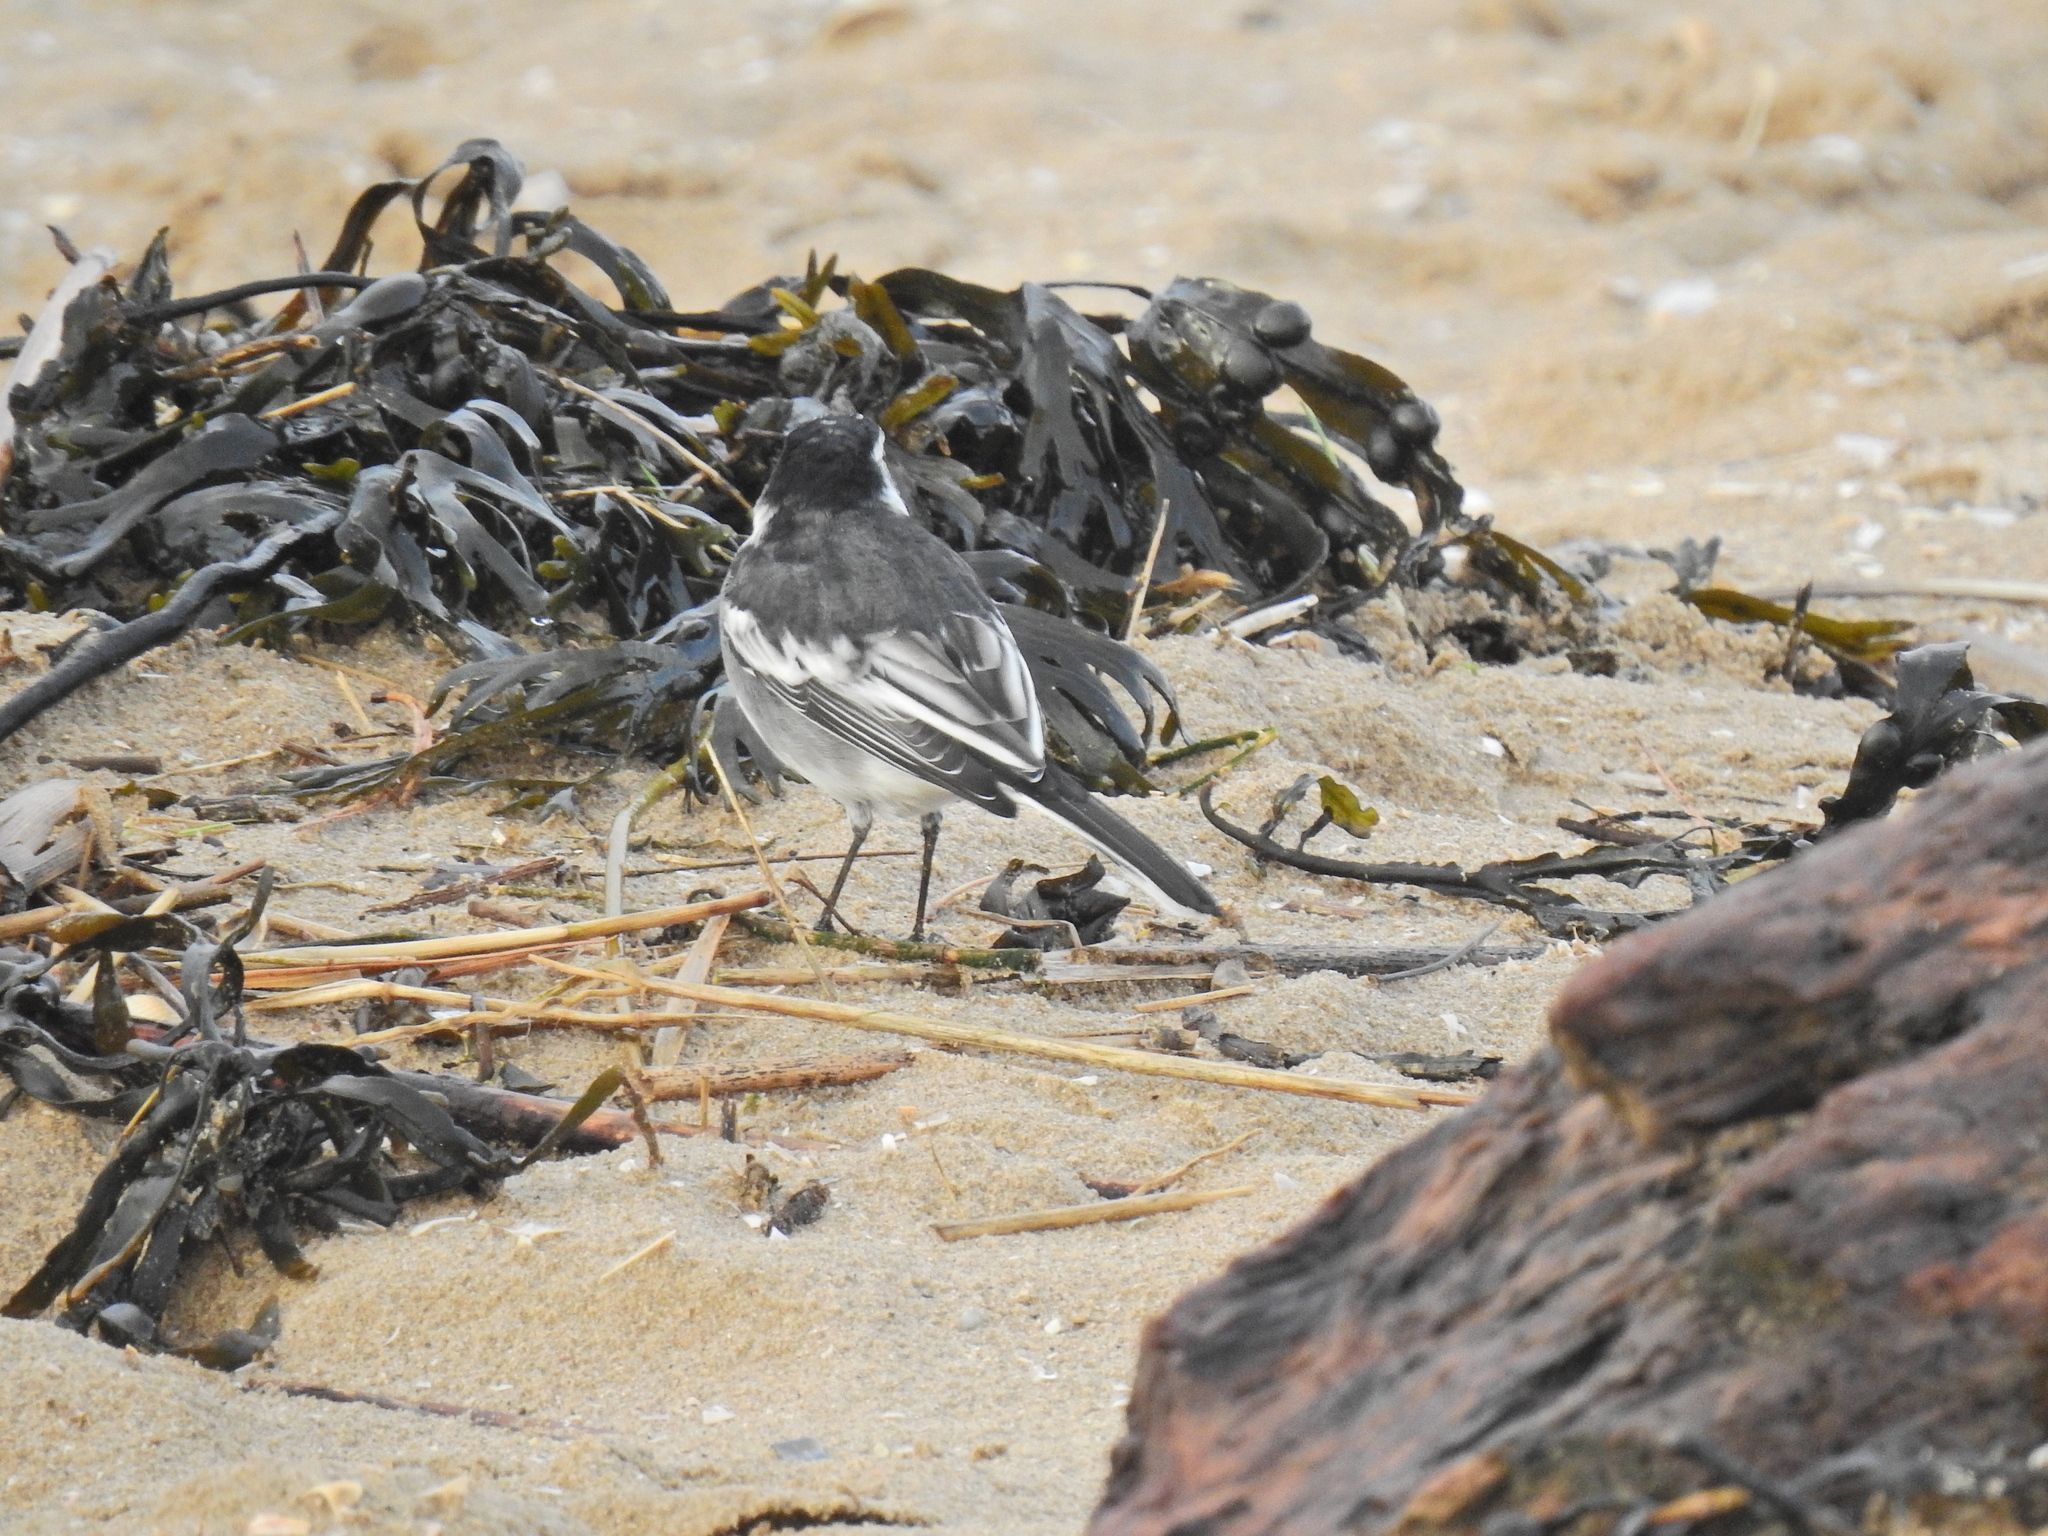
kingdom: Animalia
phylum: Chordata
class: Aves
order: Passeriformes
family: Motacillidae
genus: Motacilla
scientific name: Motacilla alba
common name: White wagtail
